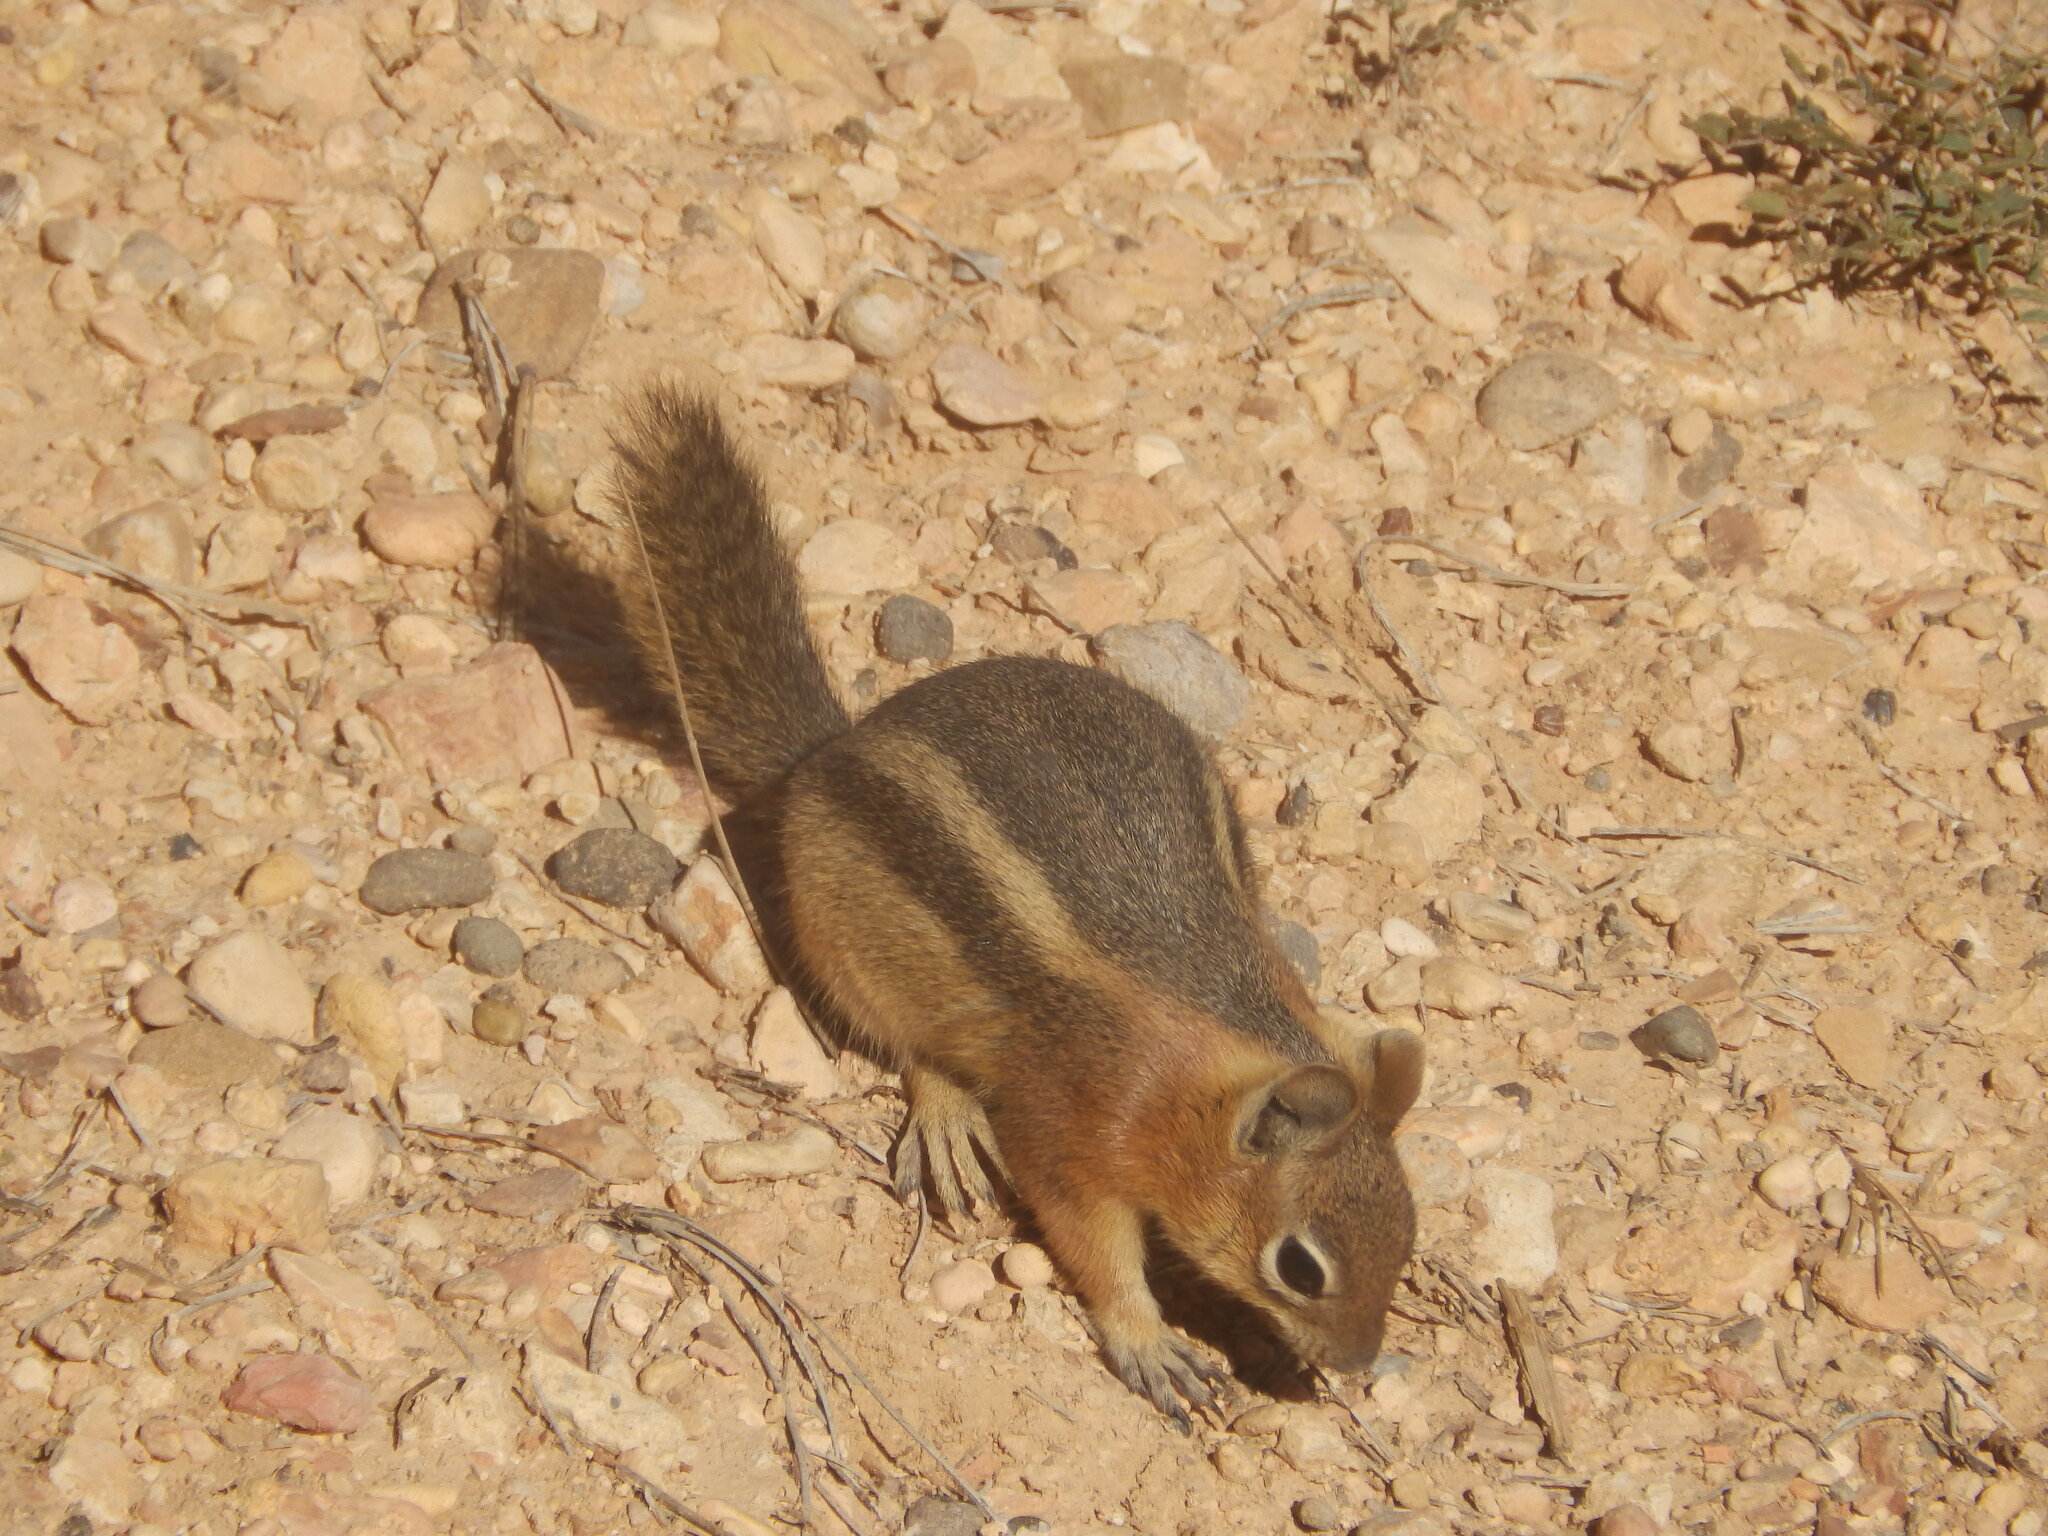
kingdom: Animalia
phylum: Chordata
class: Mammalia
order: Rodentia
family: Sciuridae
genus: Callospermophilus
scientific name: Callospermophilus lateralis
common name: Golden-mantled ground squirrel
